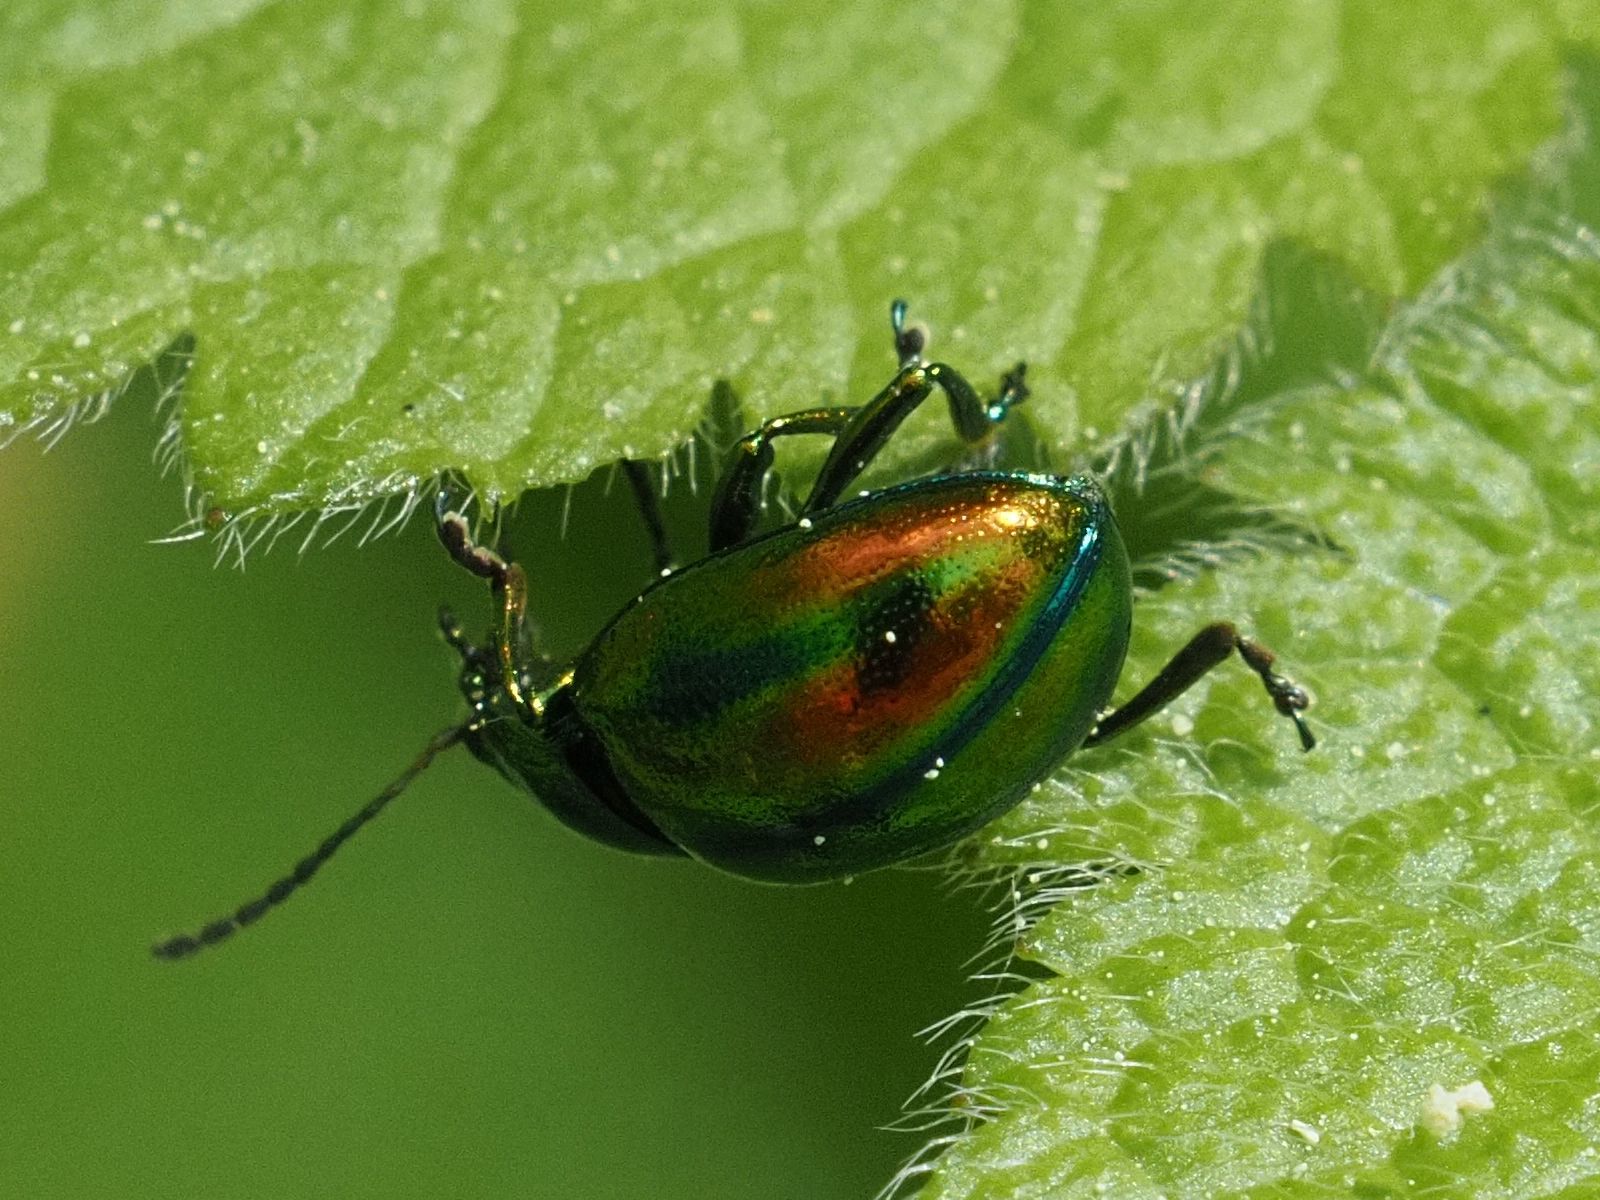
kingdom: Animalia
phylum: Arthropoda
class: Insecta
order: Coleoptera
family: Chrysomelidae
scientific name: Chrysomelidae
